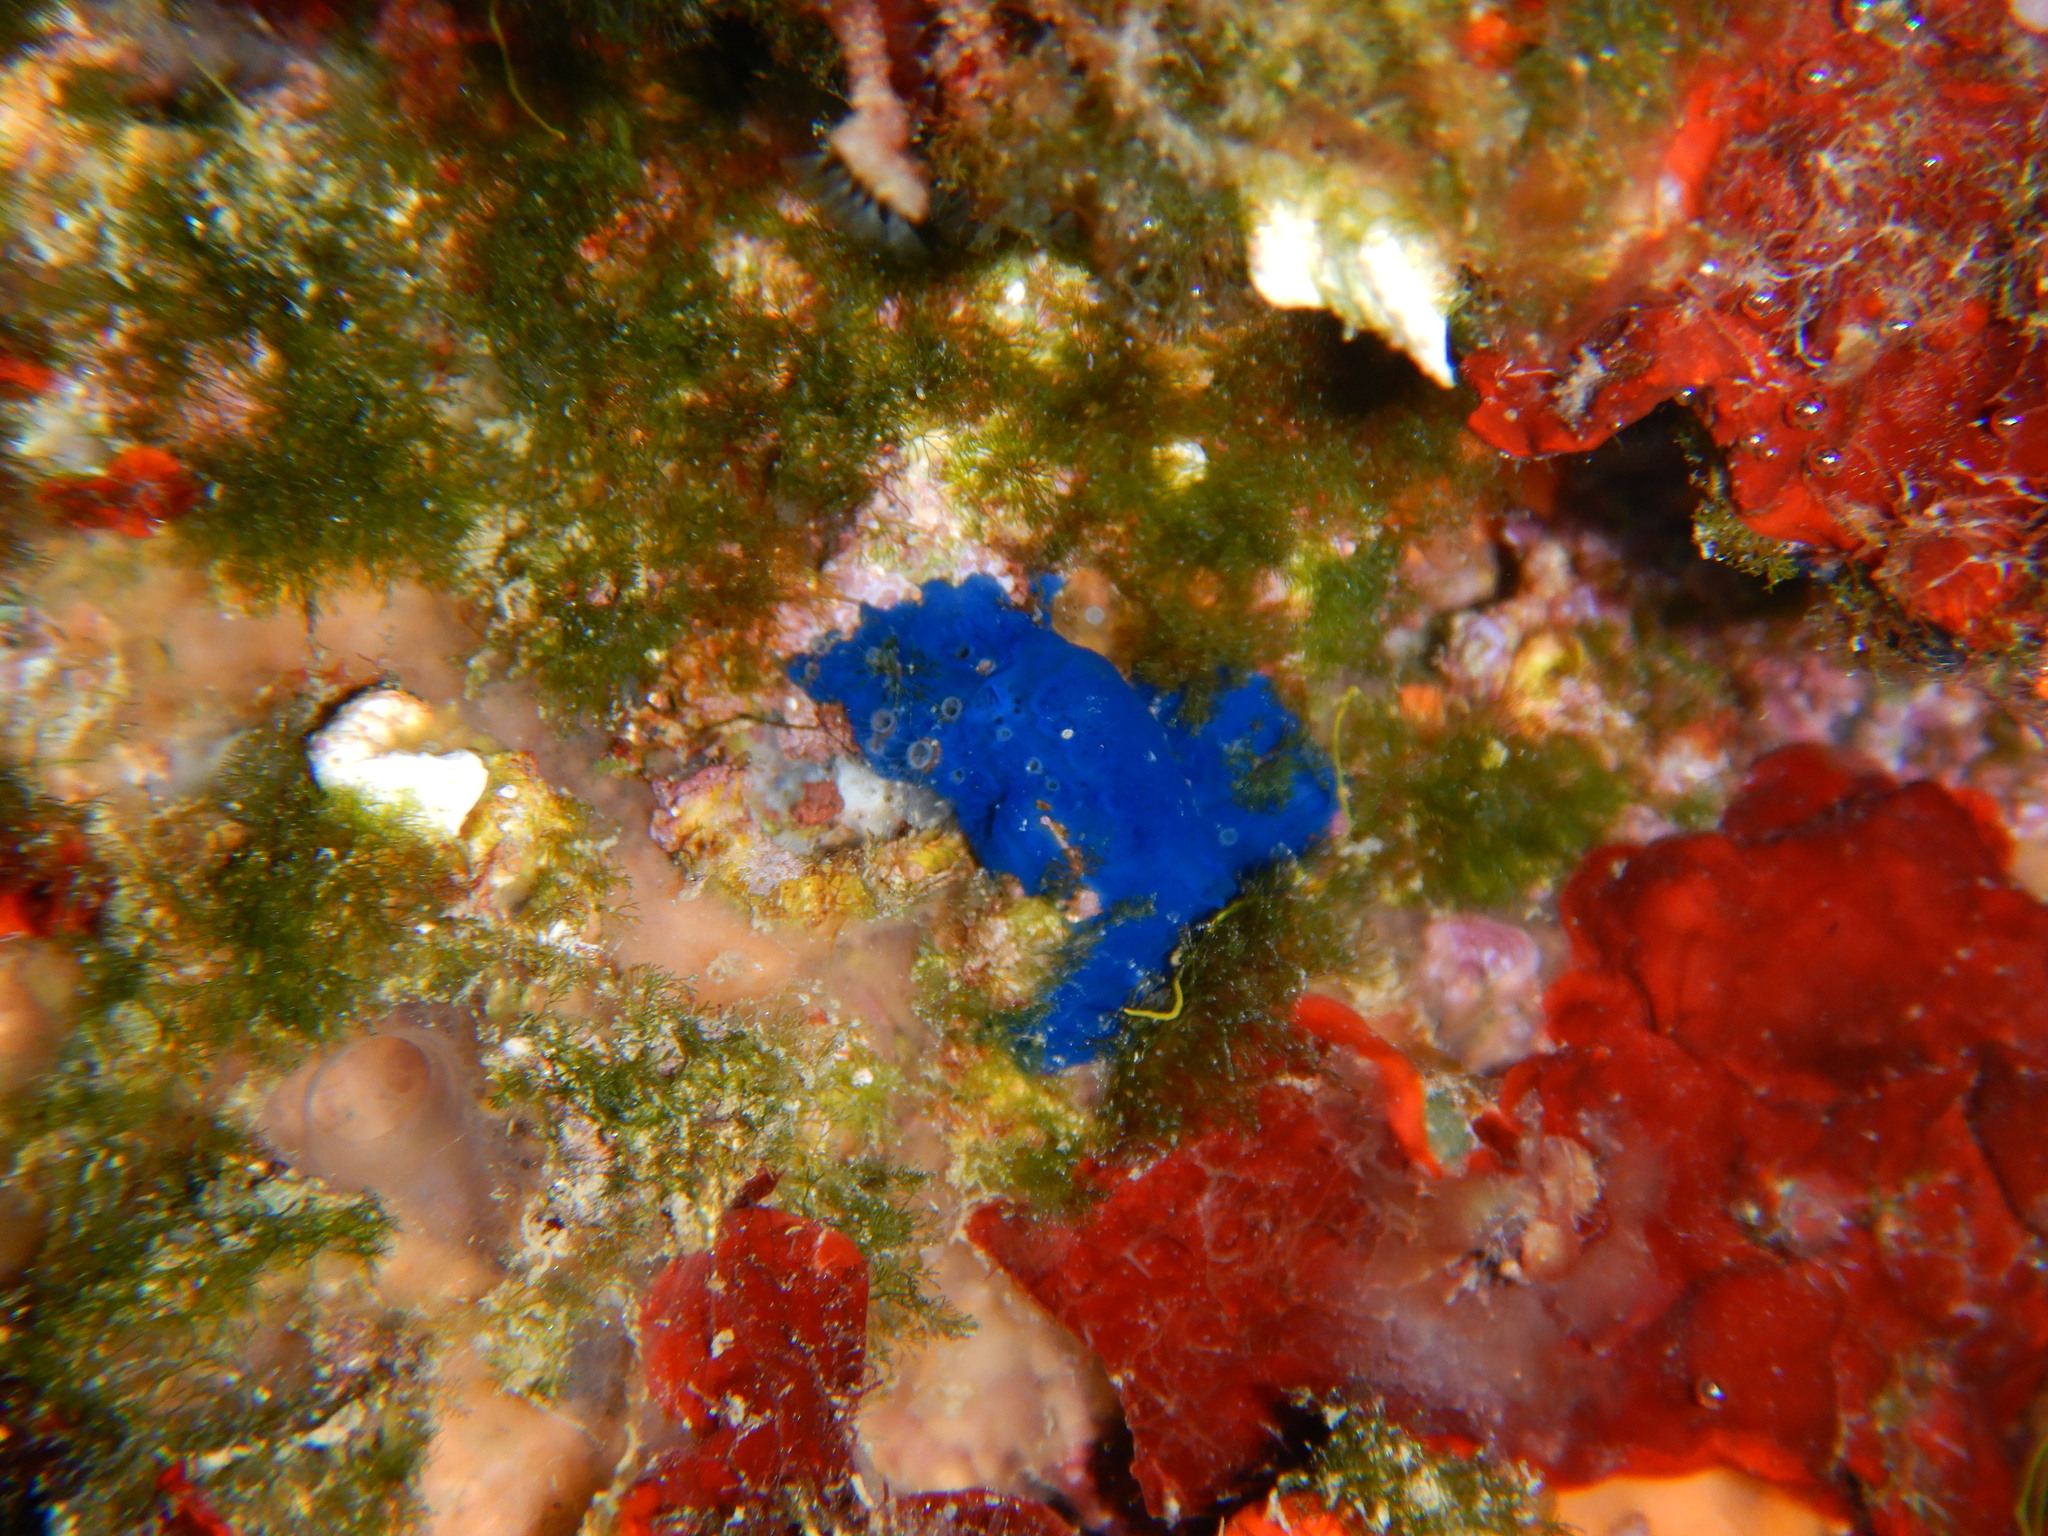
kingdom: Animalia
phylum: Porifera
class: Demospongiae
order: Suberitida
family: Suberitidae
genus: Terpios
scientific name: Terpios gelatinosus
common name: Blue encrusting sponge
